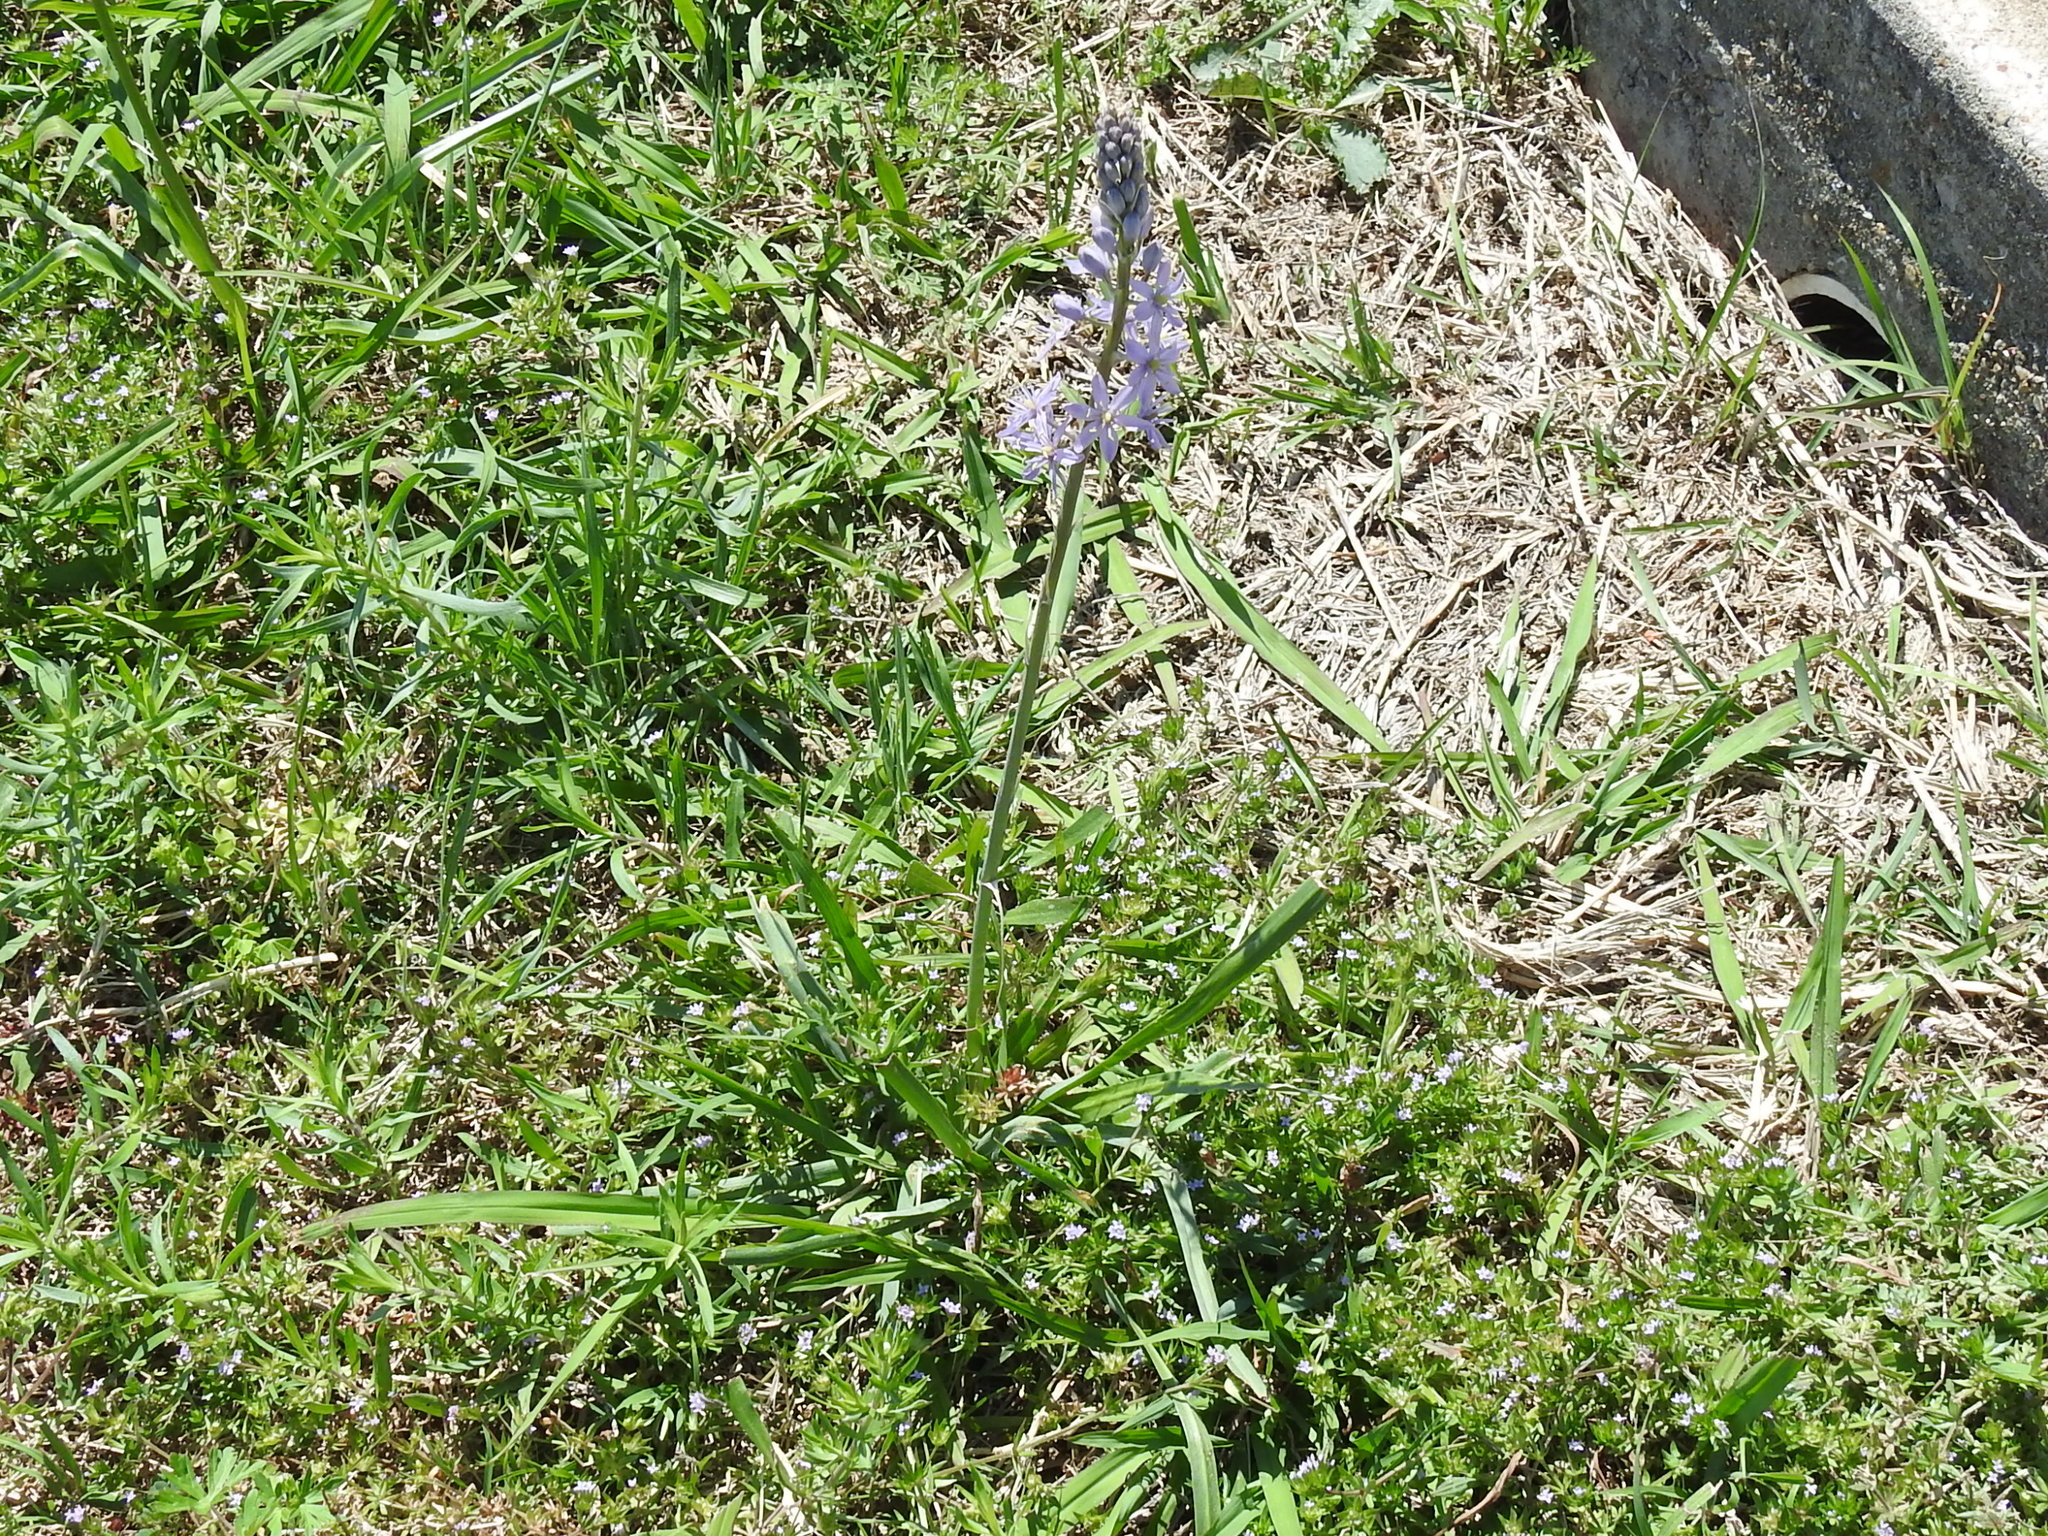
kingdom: Plantae
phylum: Tracheophyta
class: Liliopsida
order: Asparagales
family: Asparagaceae
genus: Camassia
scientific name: Camassia scilloides
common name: Wild hyacinth
